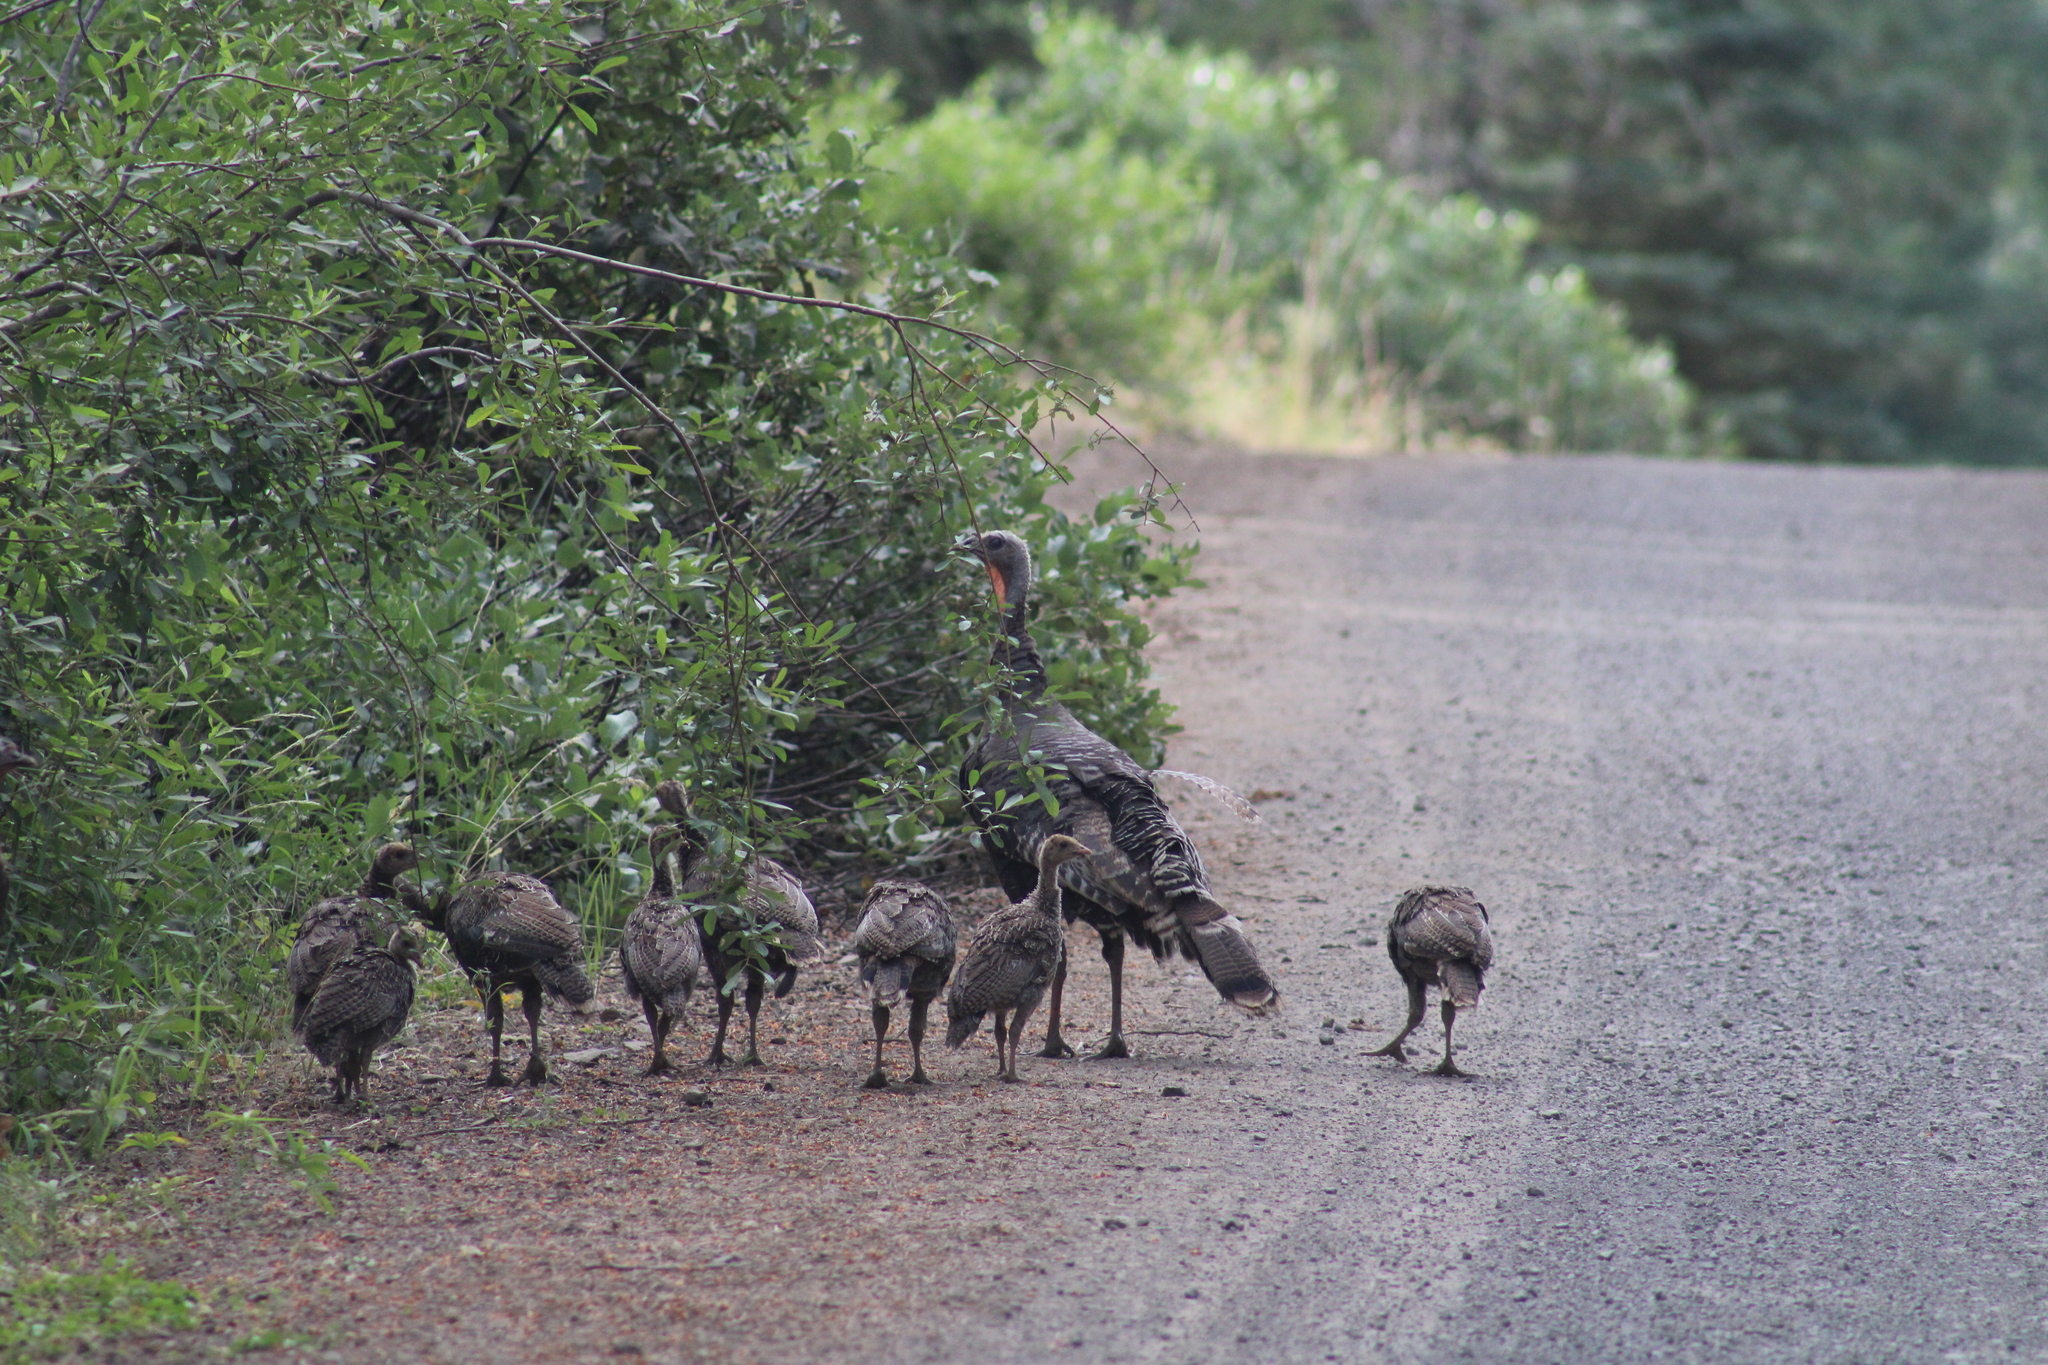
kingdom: Animalia
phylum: Chordata
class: Aves
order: Galliformes
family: Phasianidae
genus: Meleagris
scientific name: Meleagris gallopavo
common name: Wild turkey
